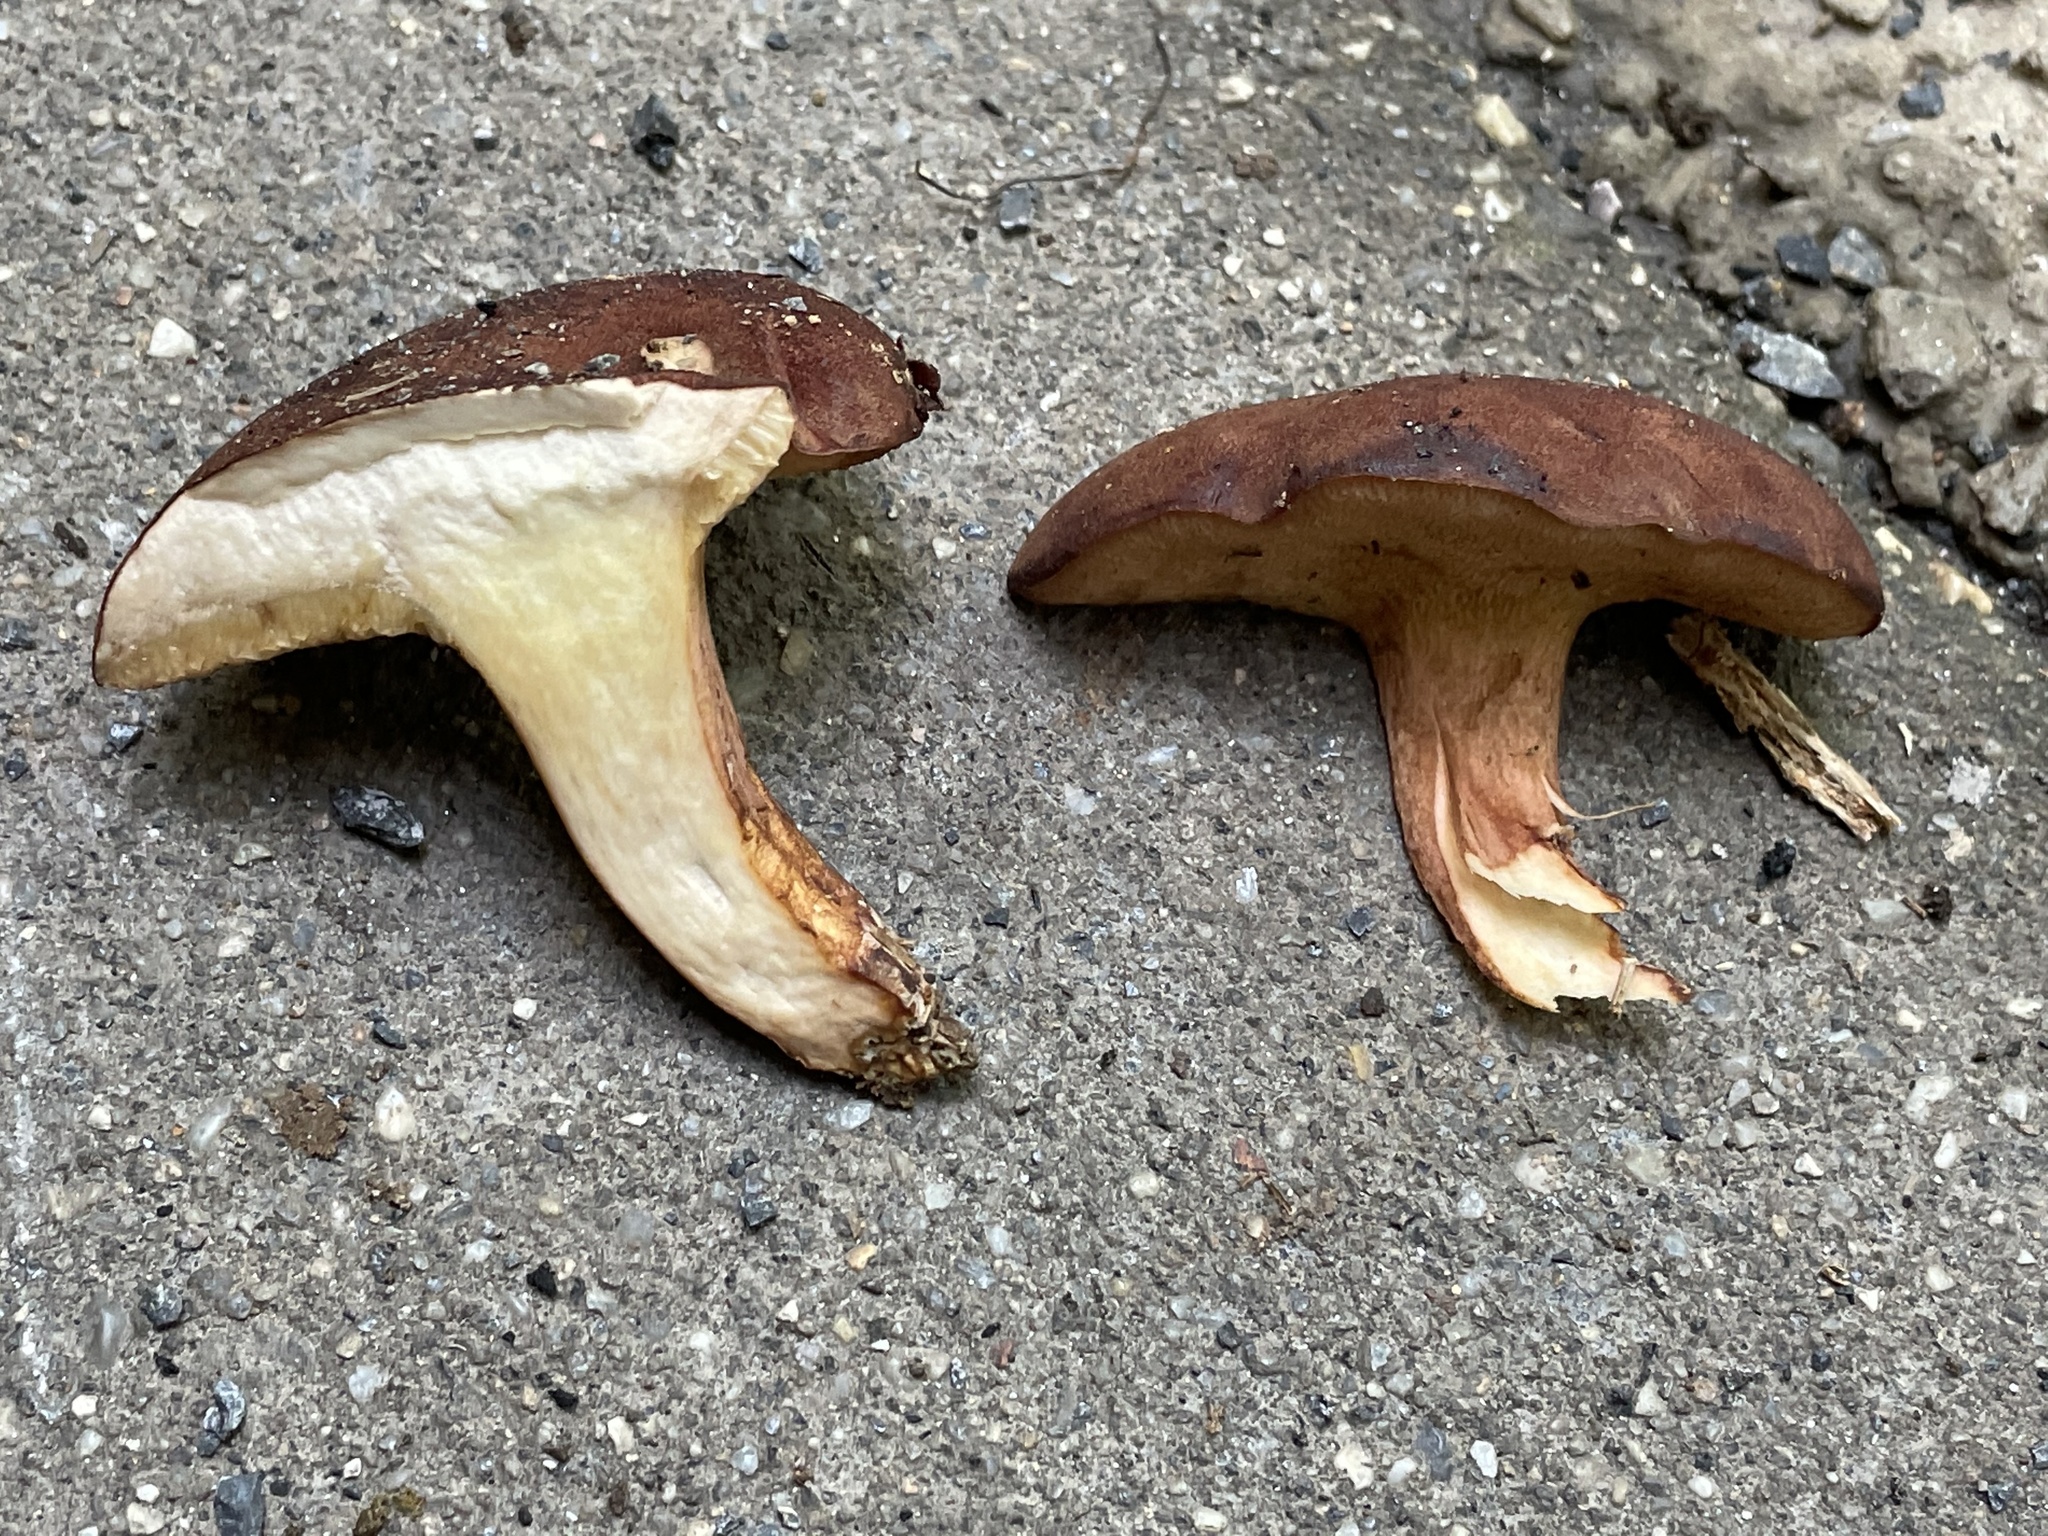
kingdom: Fungi
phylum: Basidiomycota
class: Agaricomycetes
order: Boletales
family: Boletaceae
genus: Bothia
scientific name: Bothia castanella
